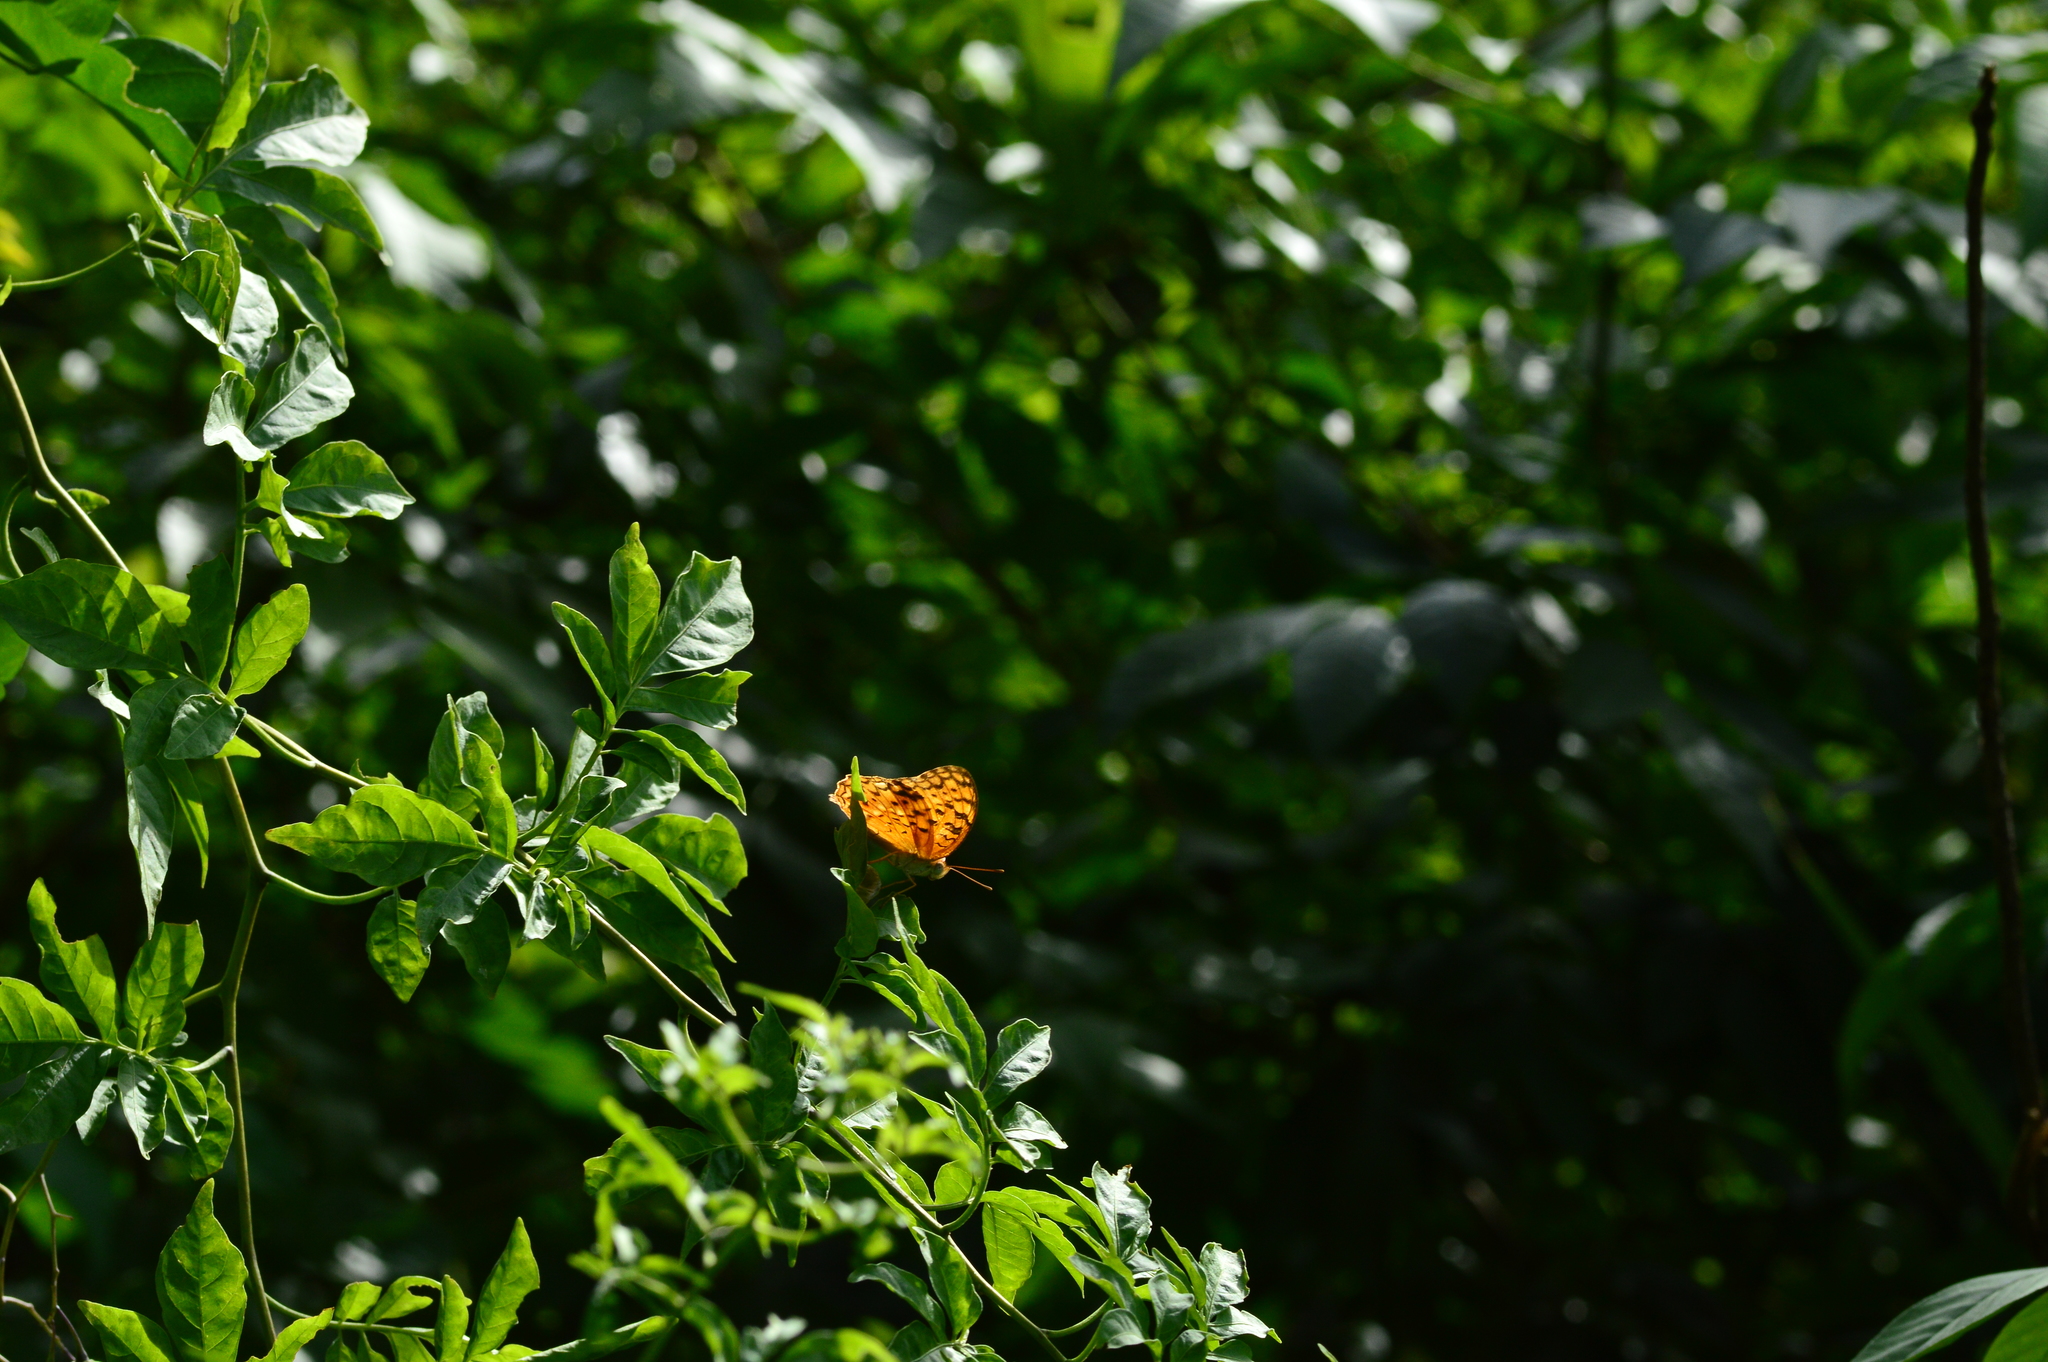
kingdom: Animalia
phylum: Arthropoda
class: Insecta
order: Lepidoptera
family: Nymphalidae
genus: Phalanta
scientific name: Phalanta phalantha
